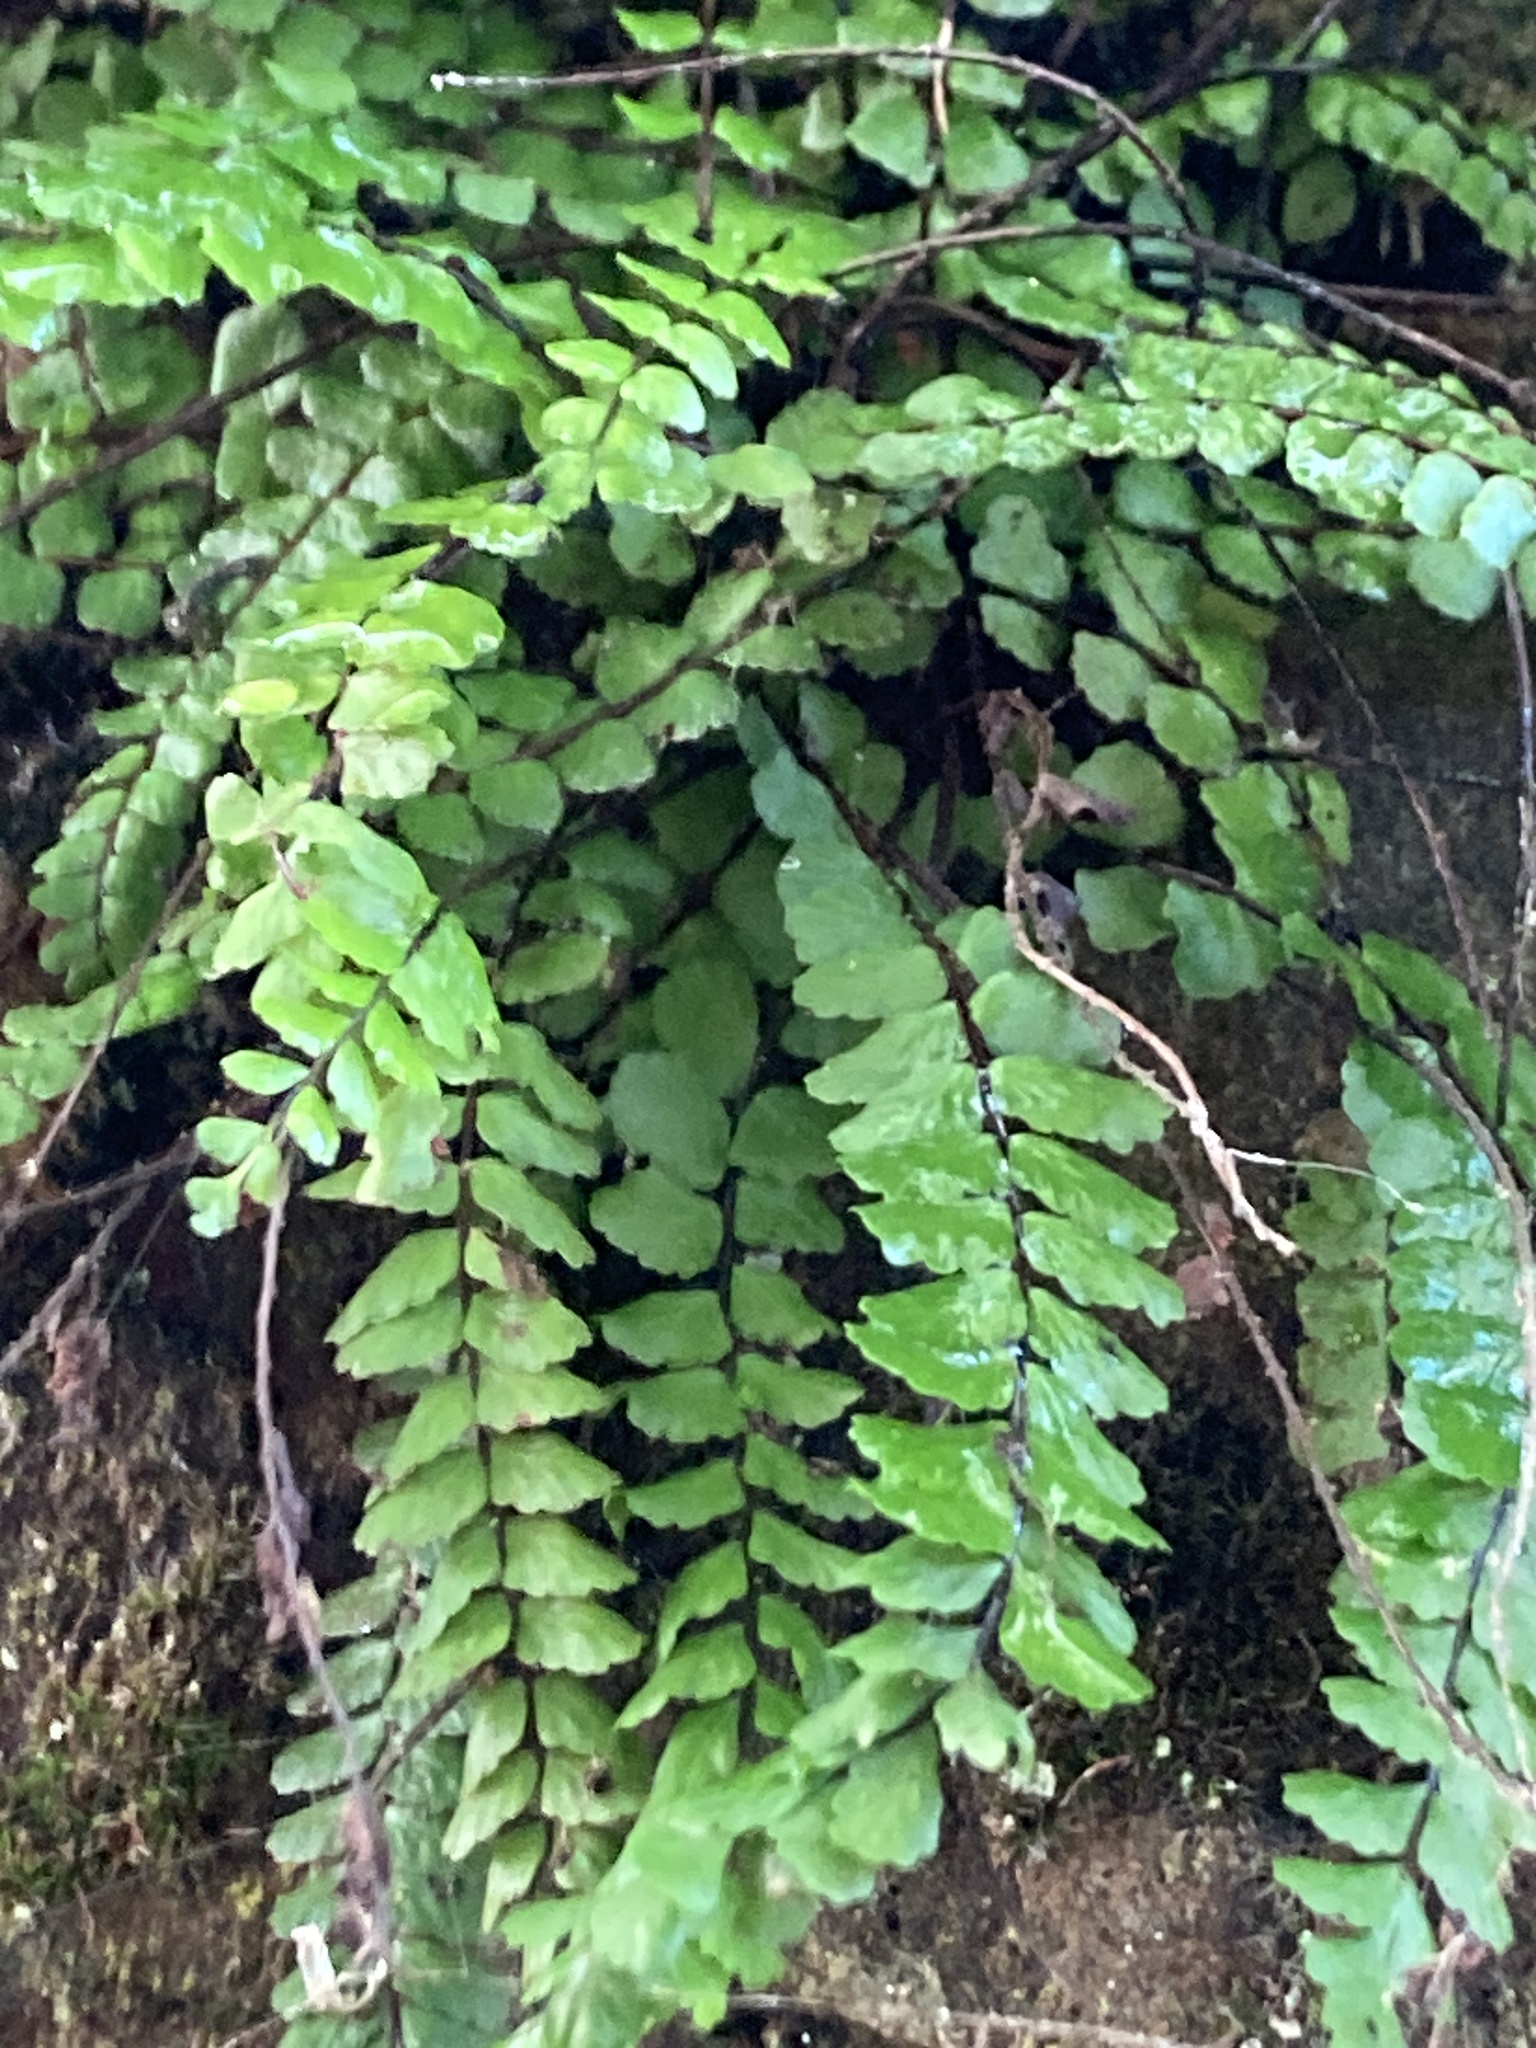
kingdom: Plantae
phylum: Tracheophyta
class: Polypodiopsida
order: Polypodiales
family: Aspleniaceae
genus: Asplenium
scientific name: Asplenium trichomanes
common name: Maidenhair spleenwort
